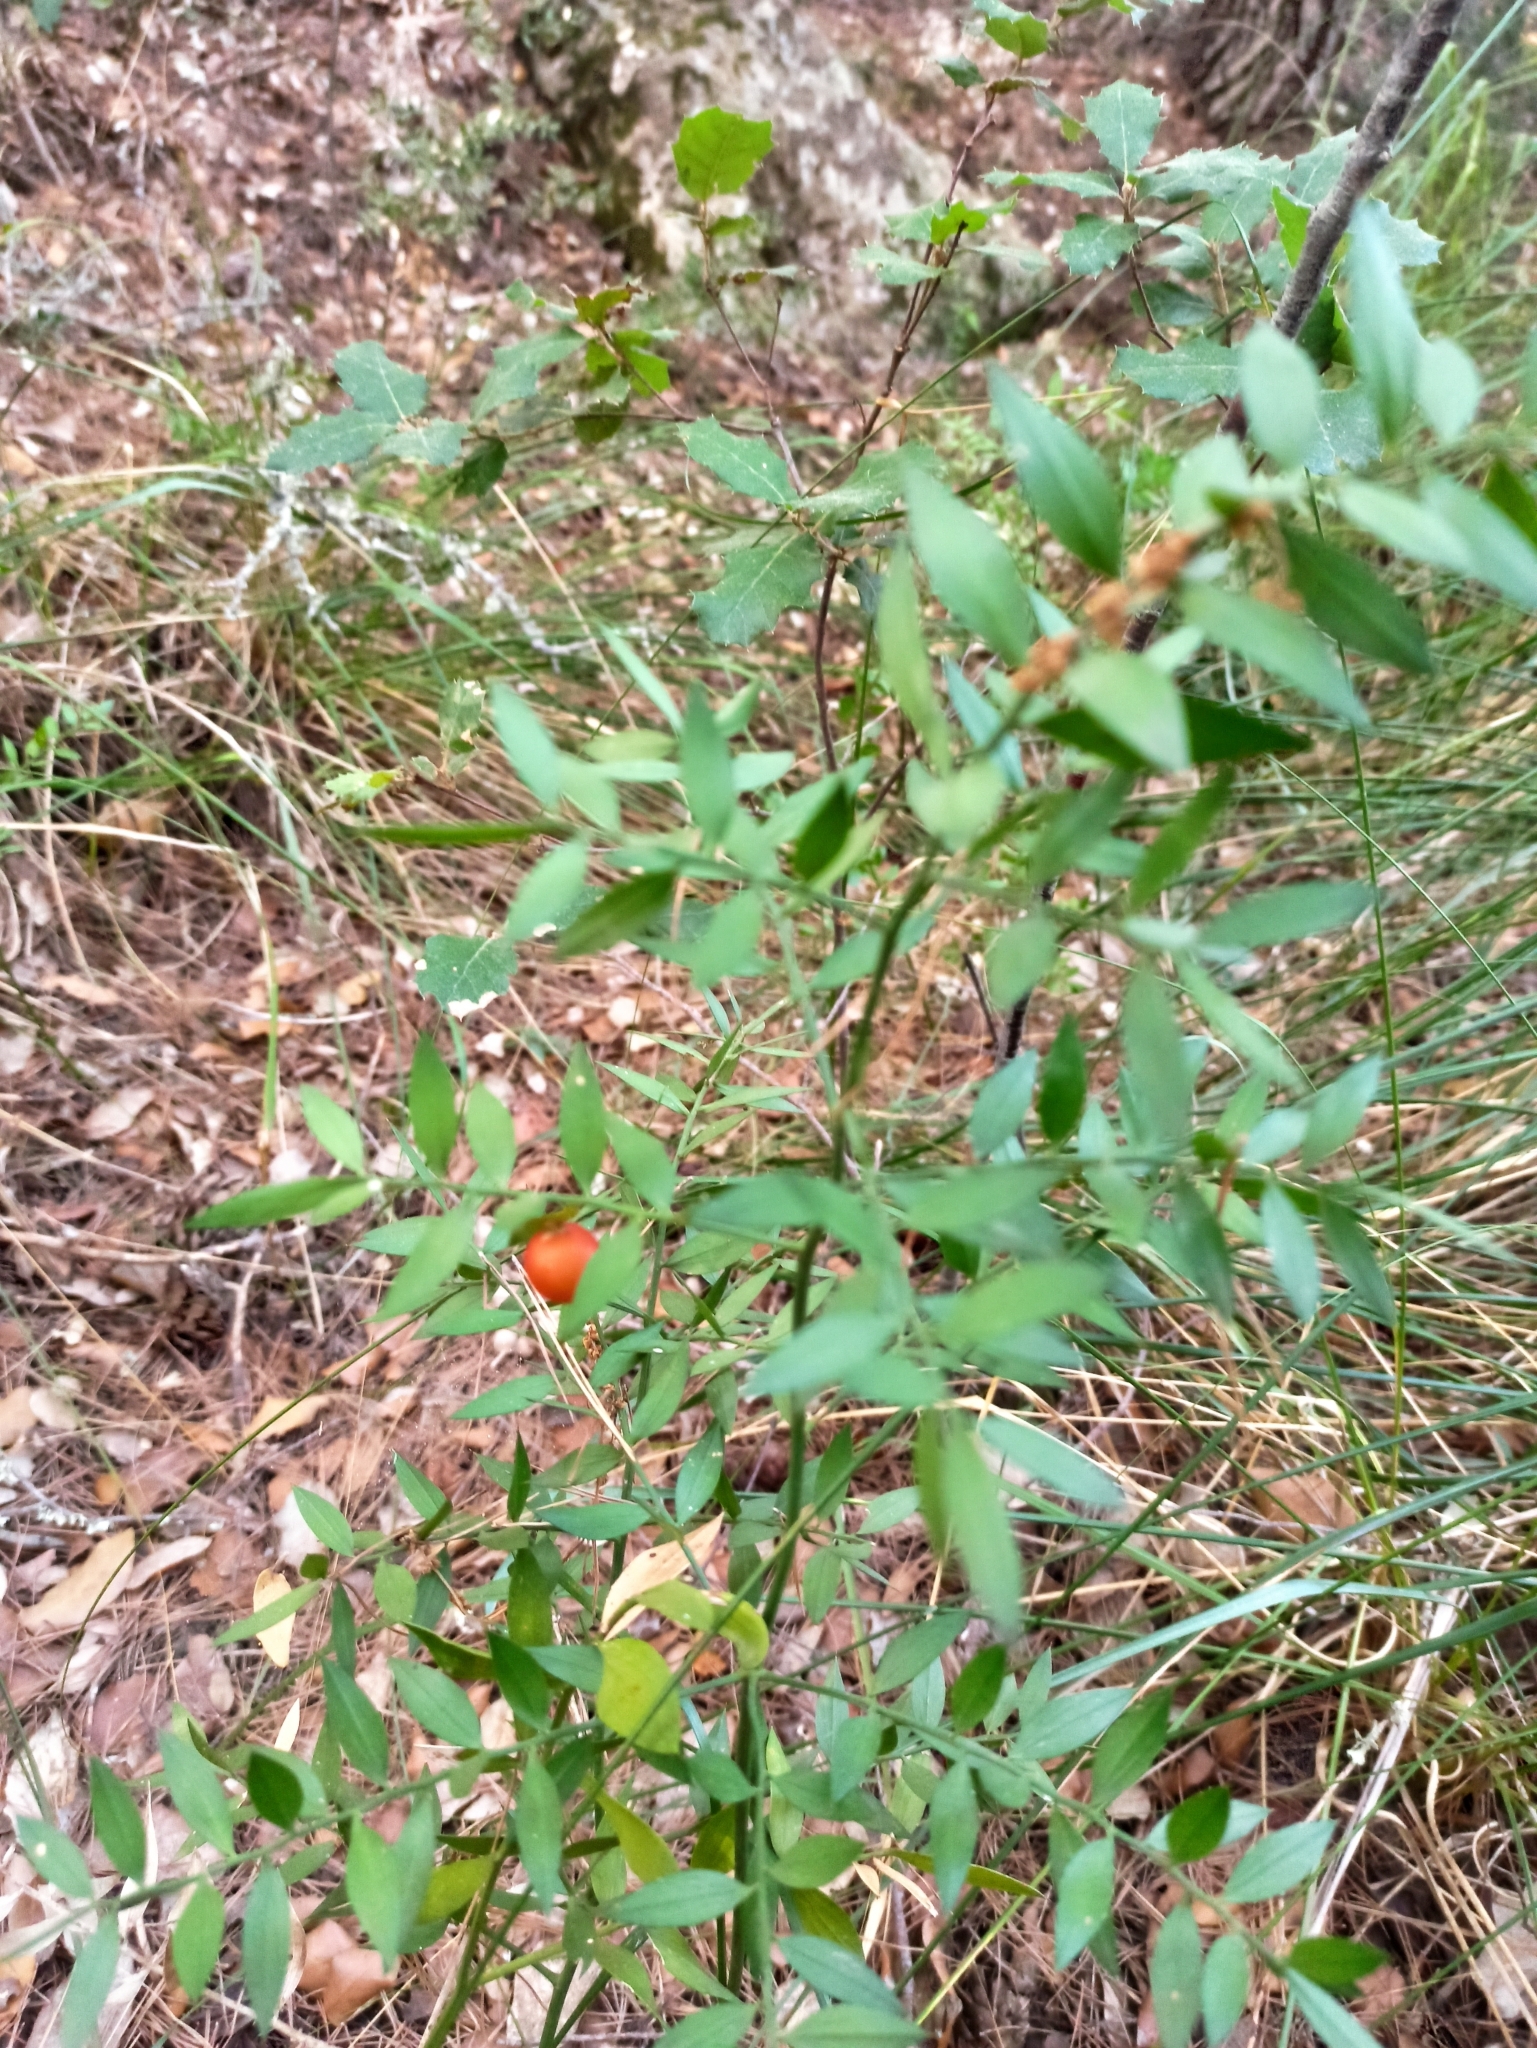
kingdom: Plantae
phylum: Tracheophyta
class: Liliopsida
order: Asparagales
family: Asparagaceae
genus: Ruscus
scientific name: Ruscus aculeatus
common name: Butcher's-broom
